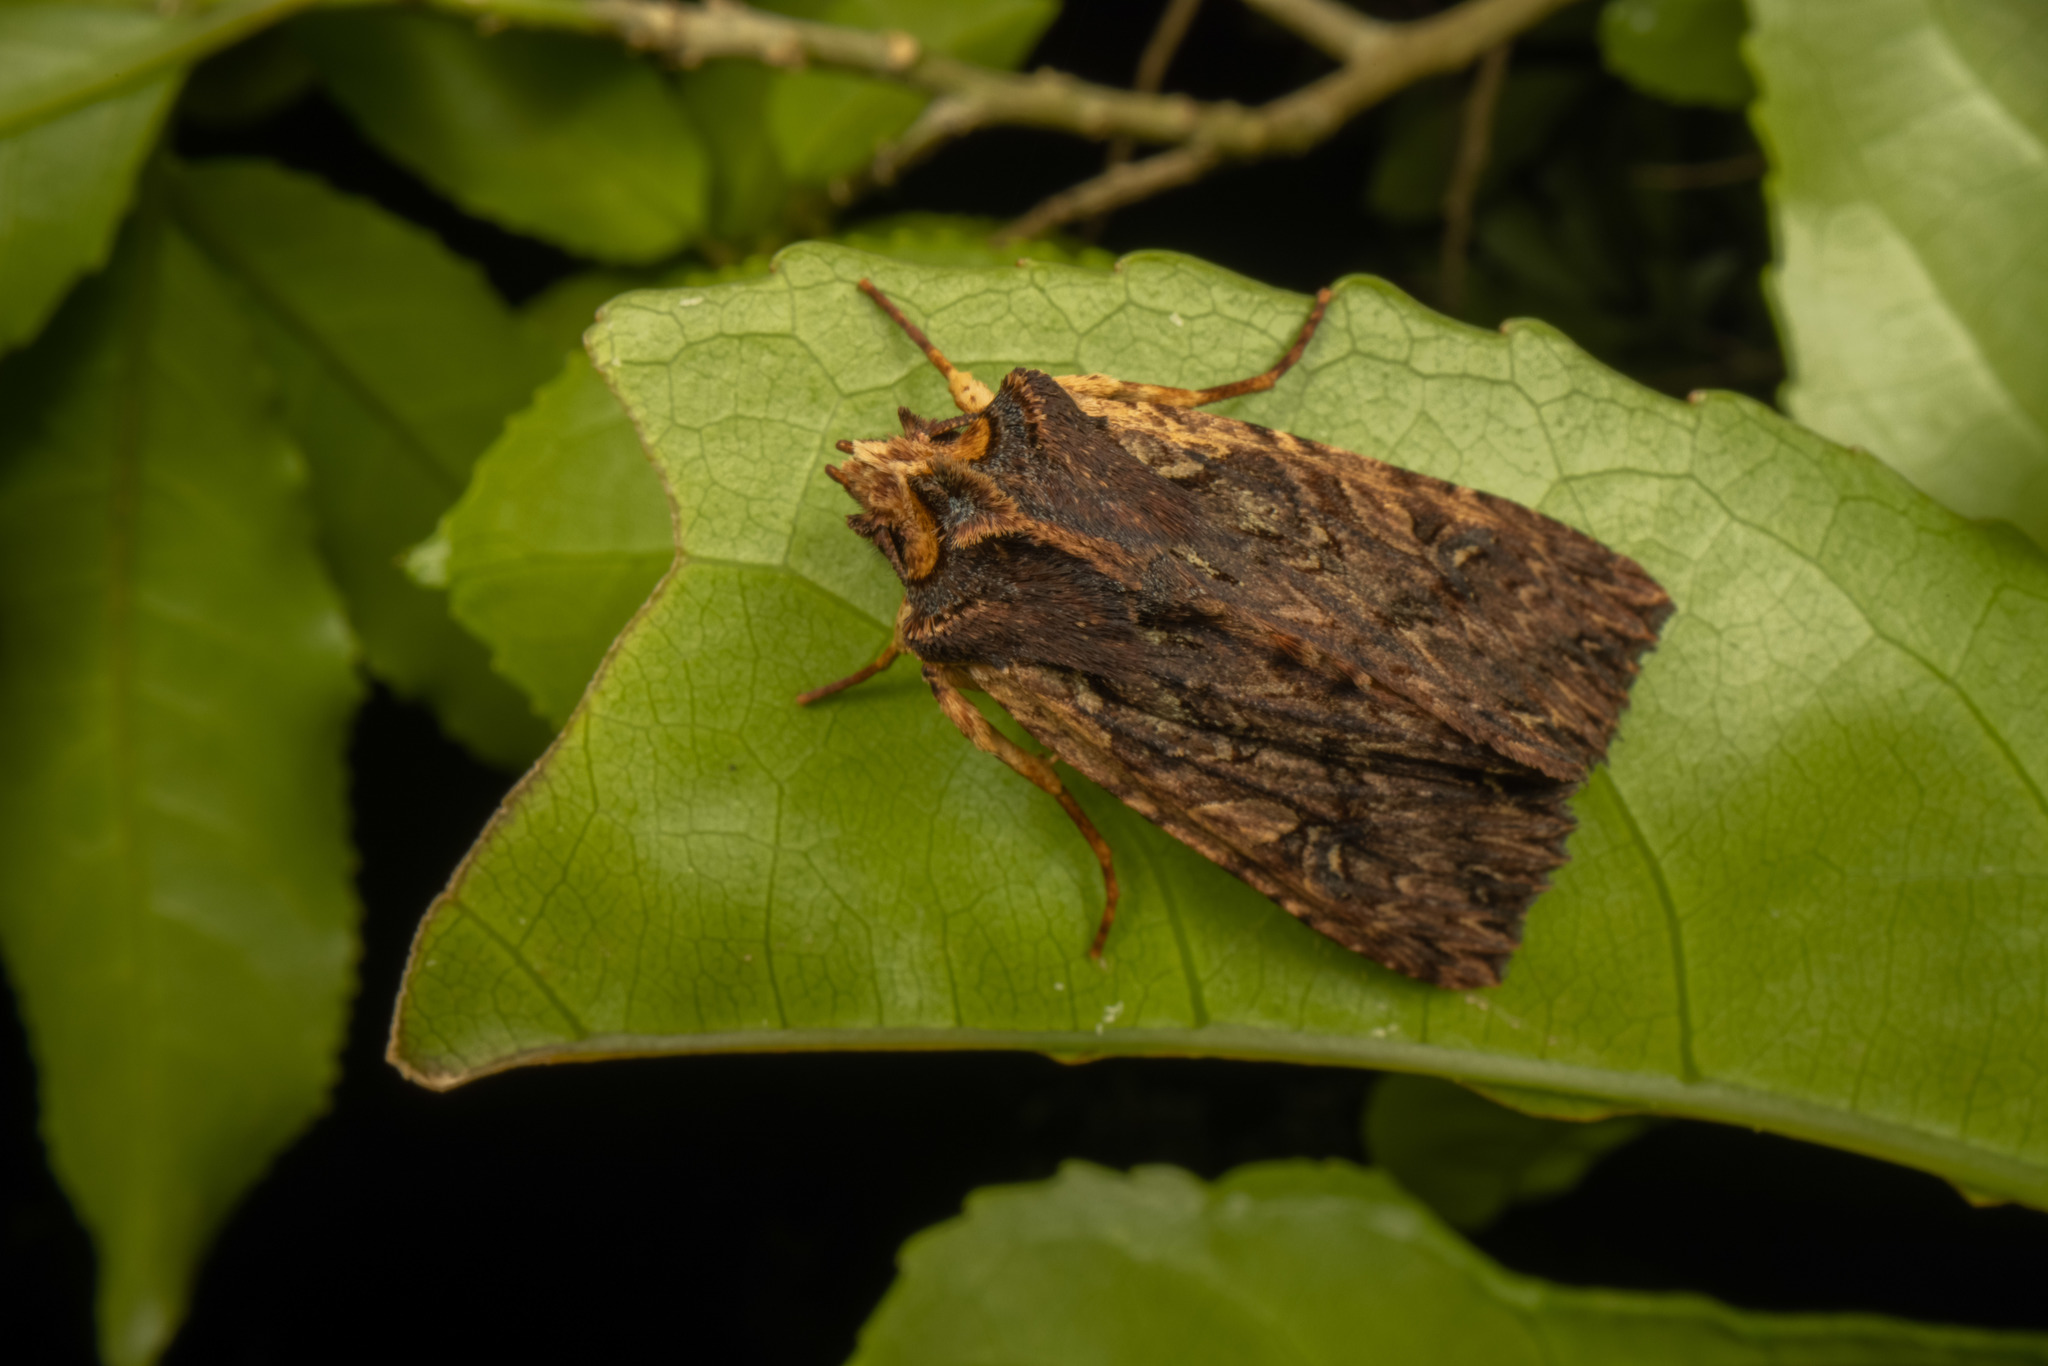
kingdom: Animalia
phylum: Arthropoda
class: Insecta
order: Lepidoptera
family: Noctuidae
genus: Meterana
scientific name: Meterana alcyone
